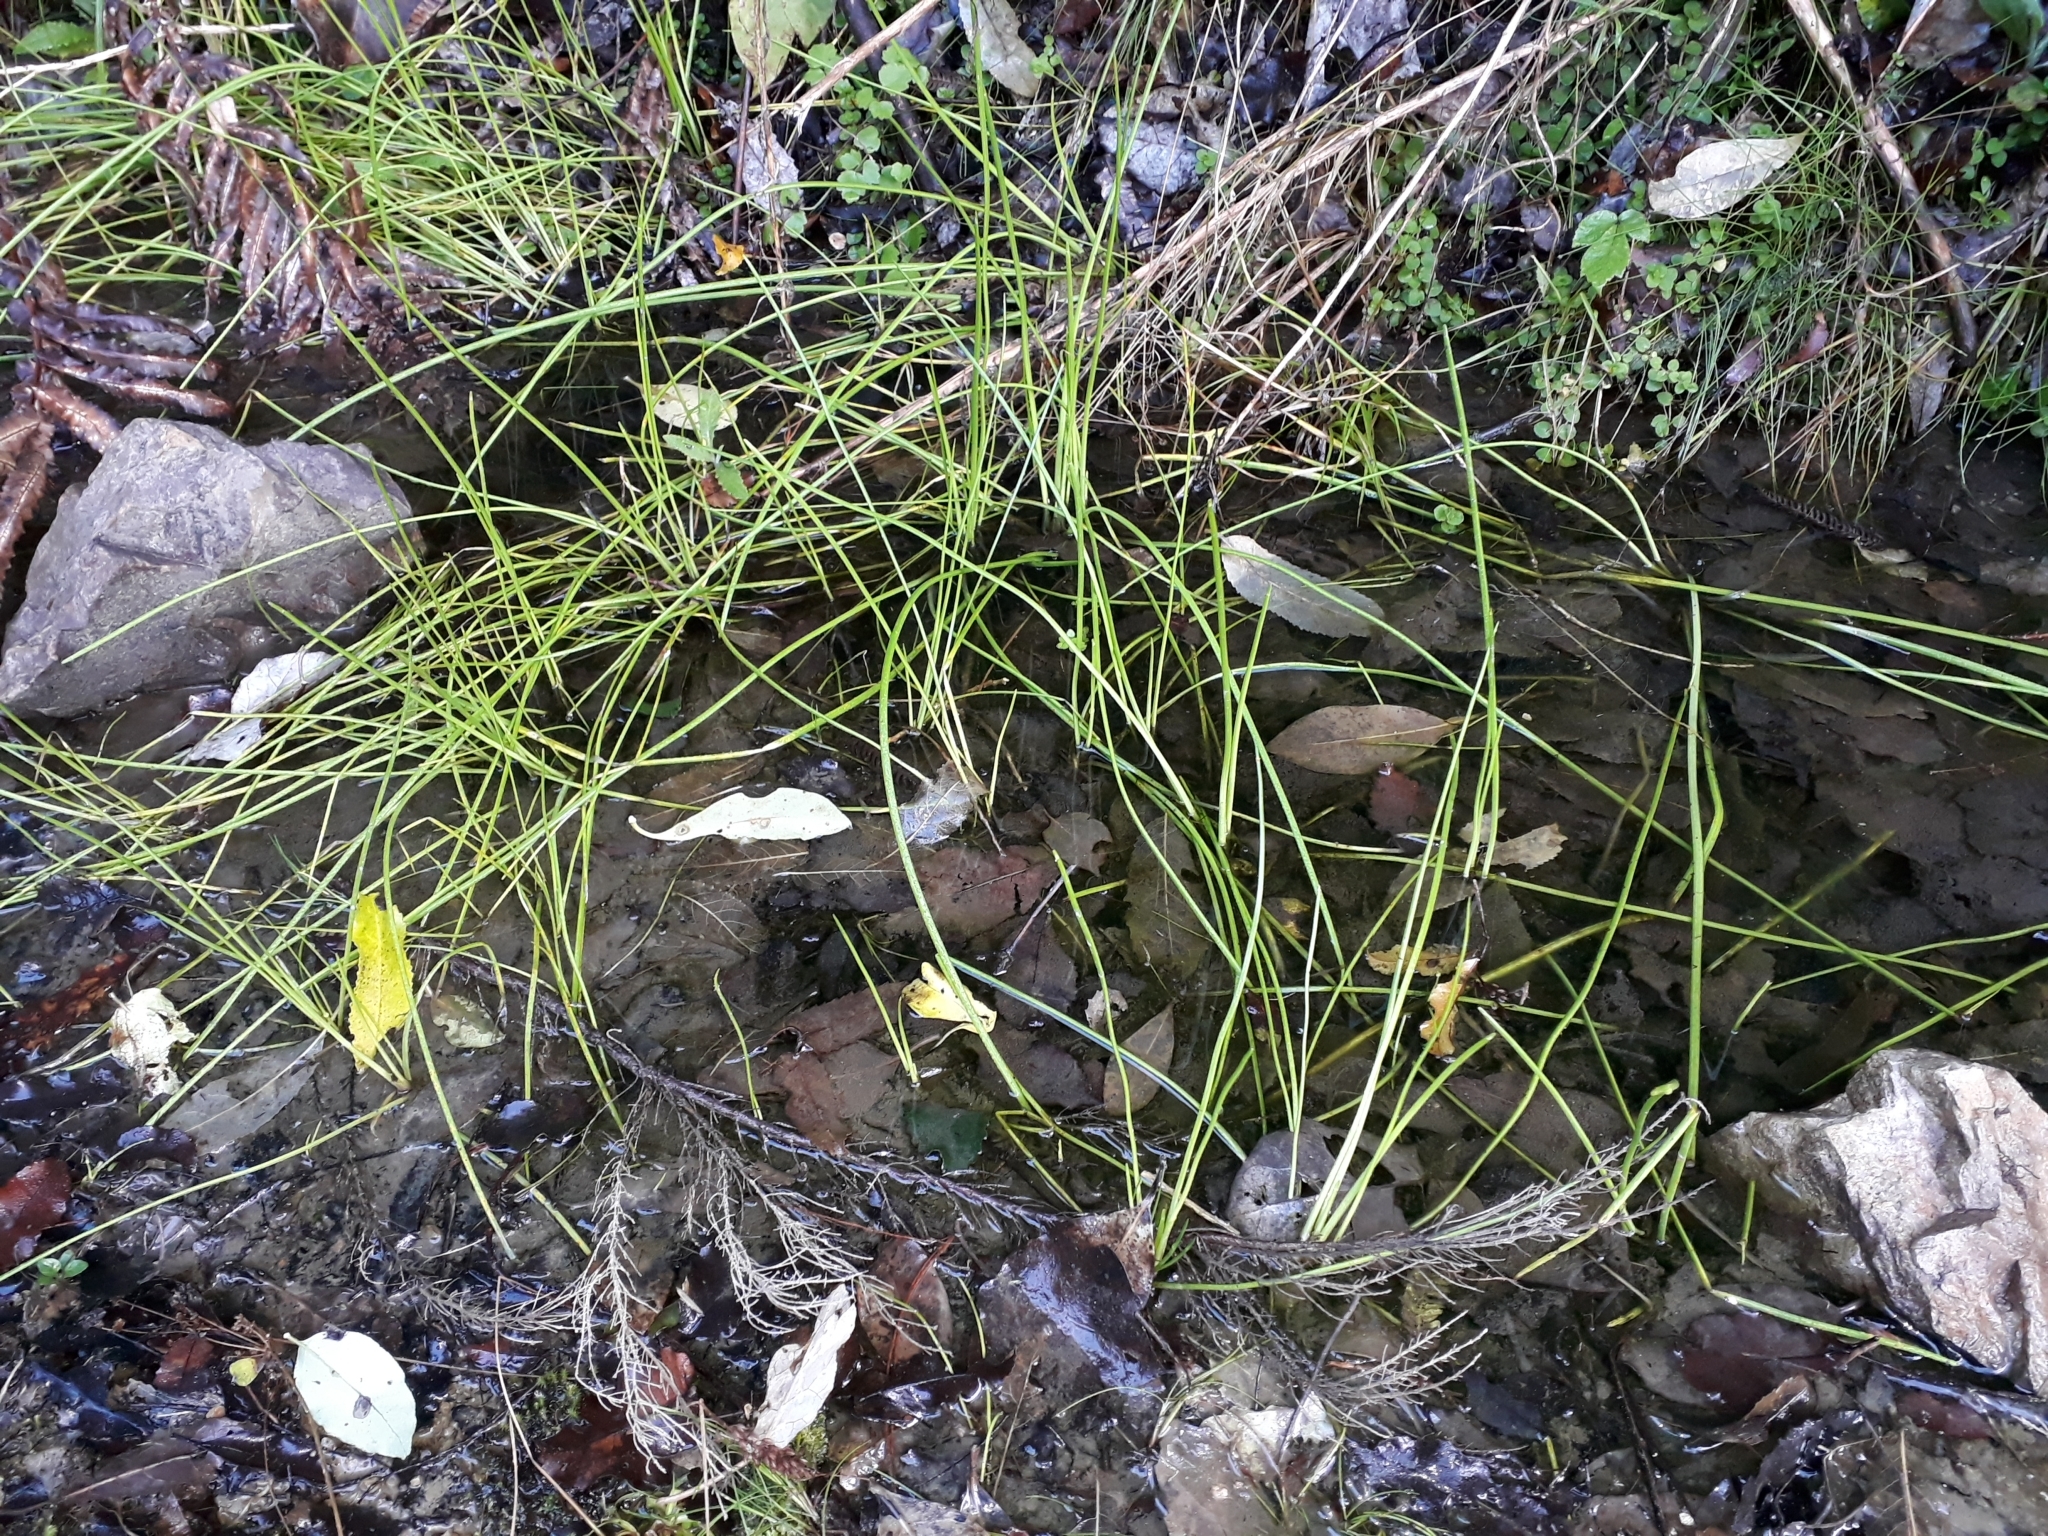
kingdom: Plantae
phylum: Tracheophyta
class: Liliopsida
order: Poales
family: Juncaceae
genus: Juncus
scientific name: Juncus articulatus
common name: Jointed rush
